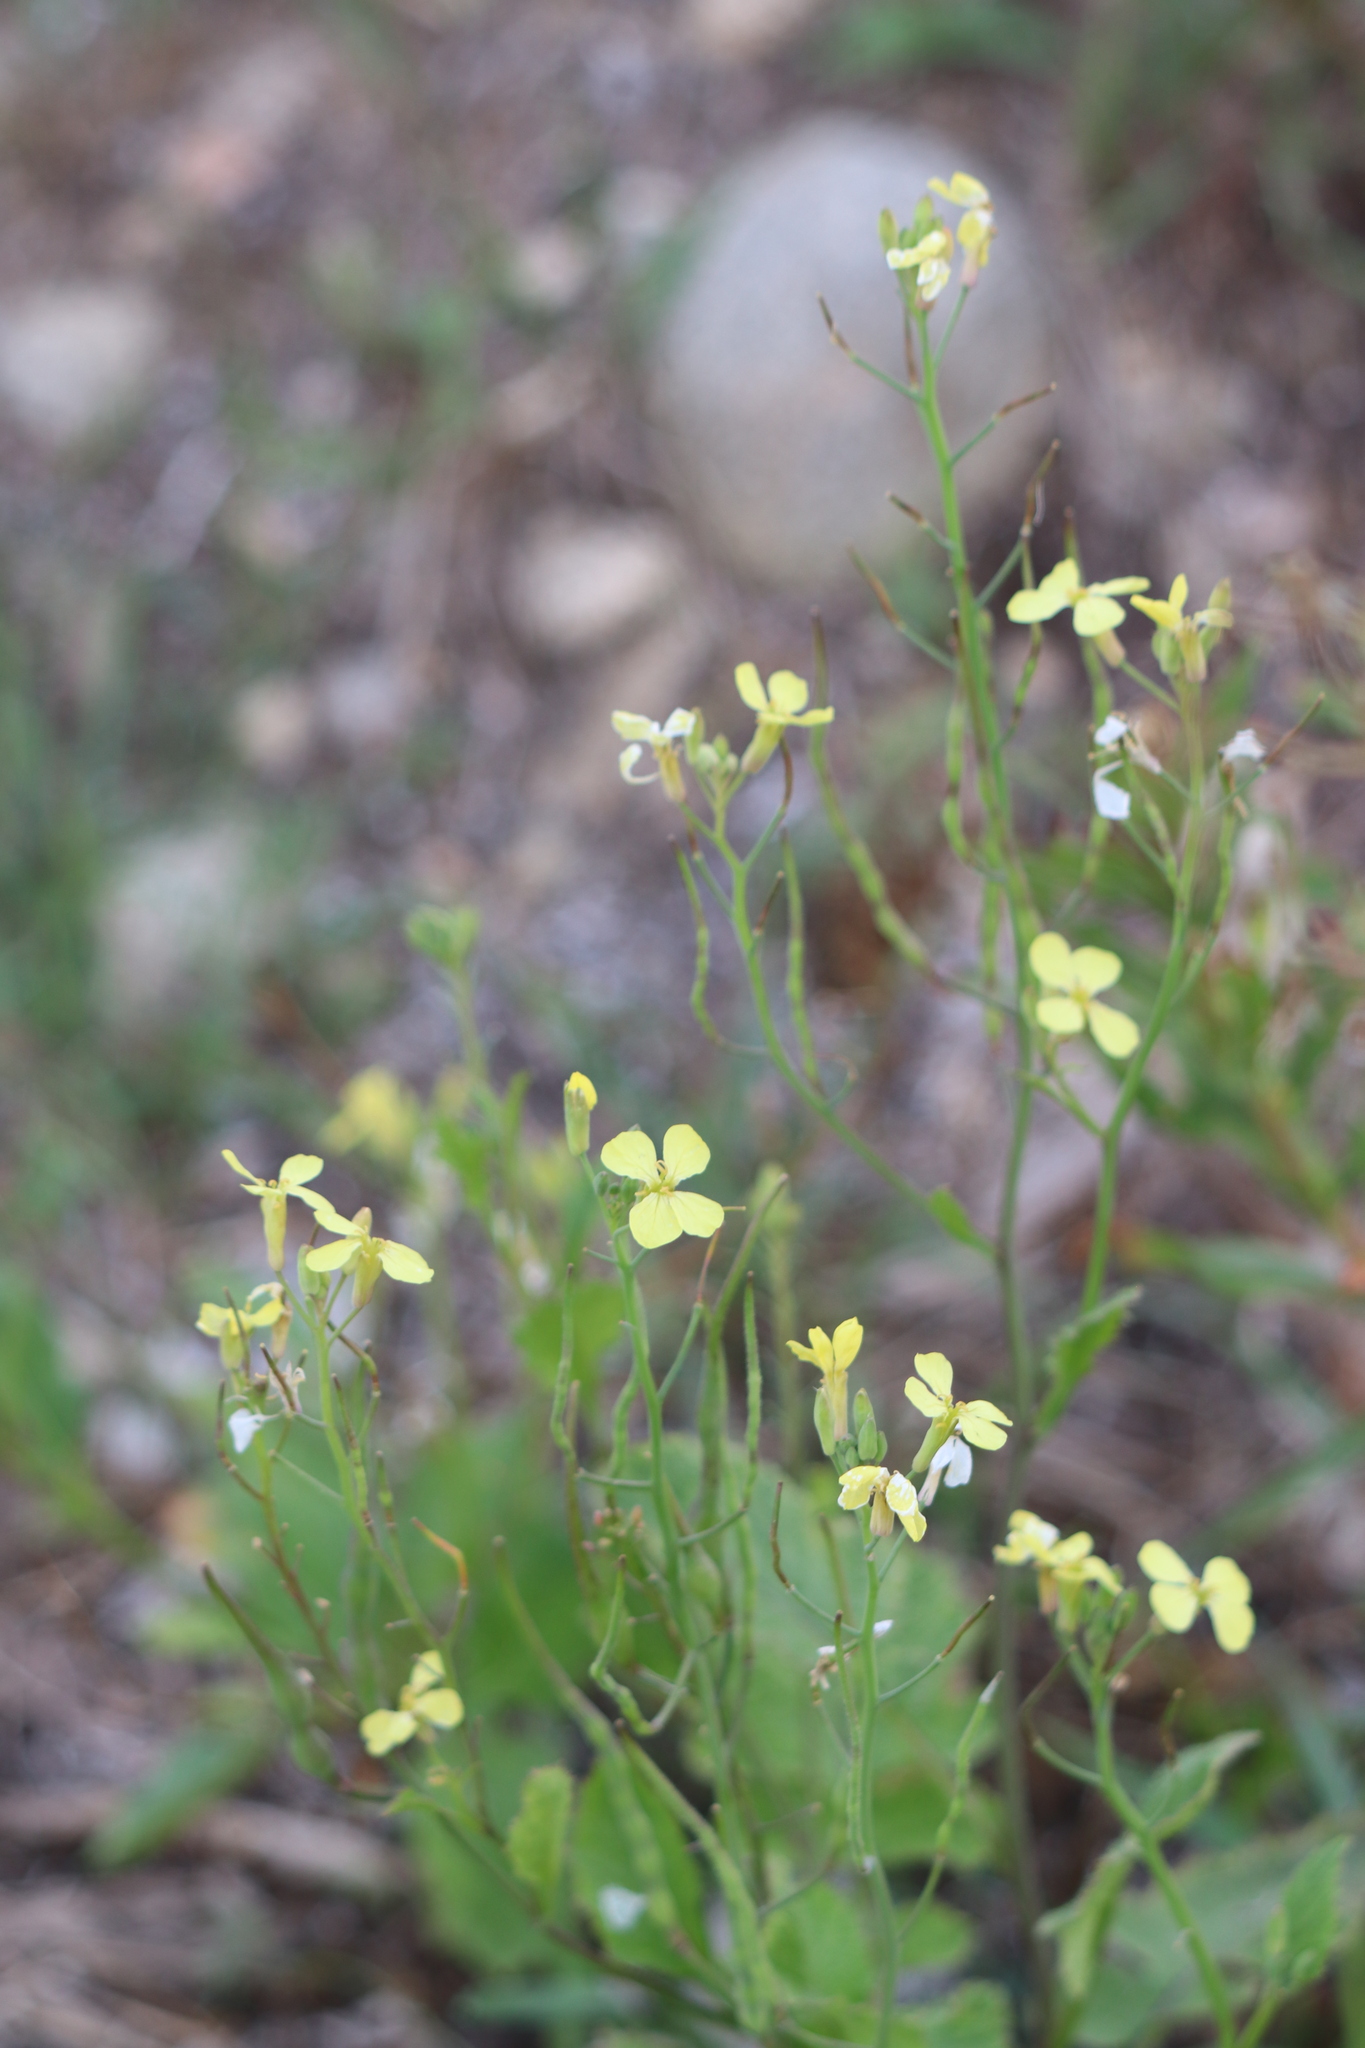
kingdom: Plantae
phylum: Tracheophyta
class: Magnoliopsida
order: Brassicales
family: Brassicaceae
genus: Raphanus
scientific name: Raphanus raphanistrum
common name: Wild radish
